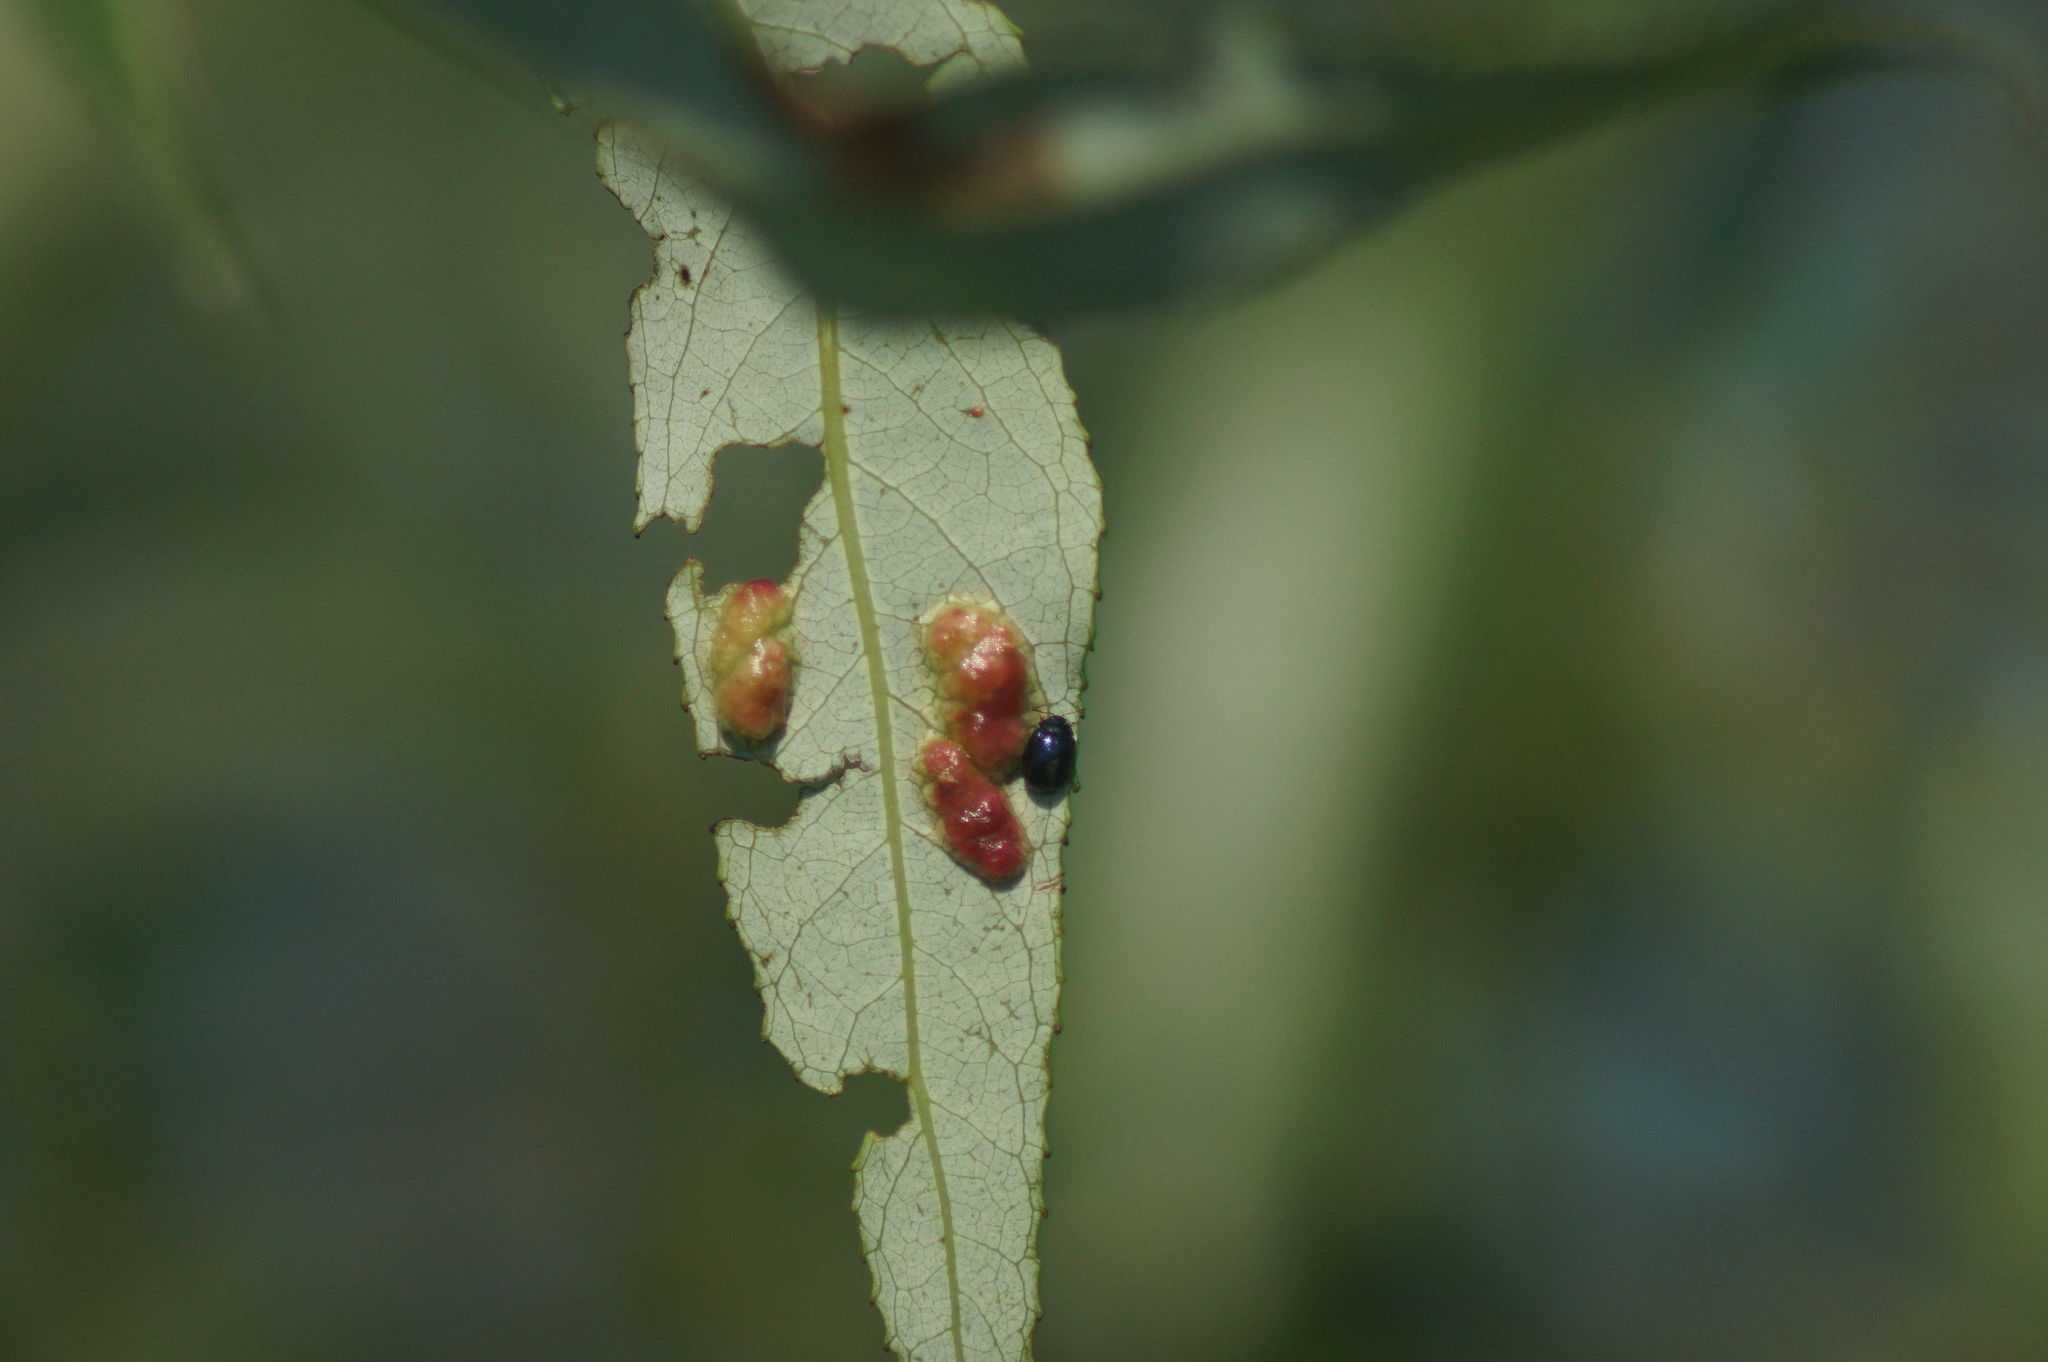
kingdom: Animalia
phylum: Arthropoda
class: Insecta
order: Coleoptera
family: Chrysomelidae
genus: Plagiodera
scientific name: Plagiodera versicolora
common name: Imported willow leaf beetle
